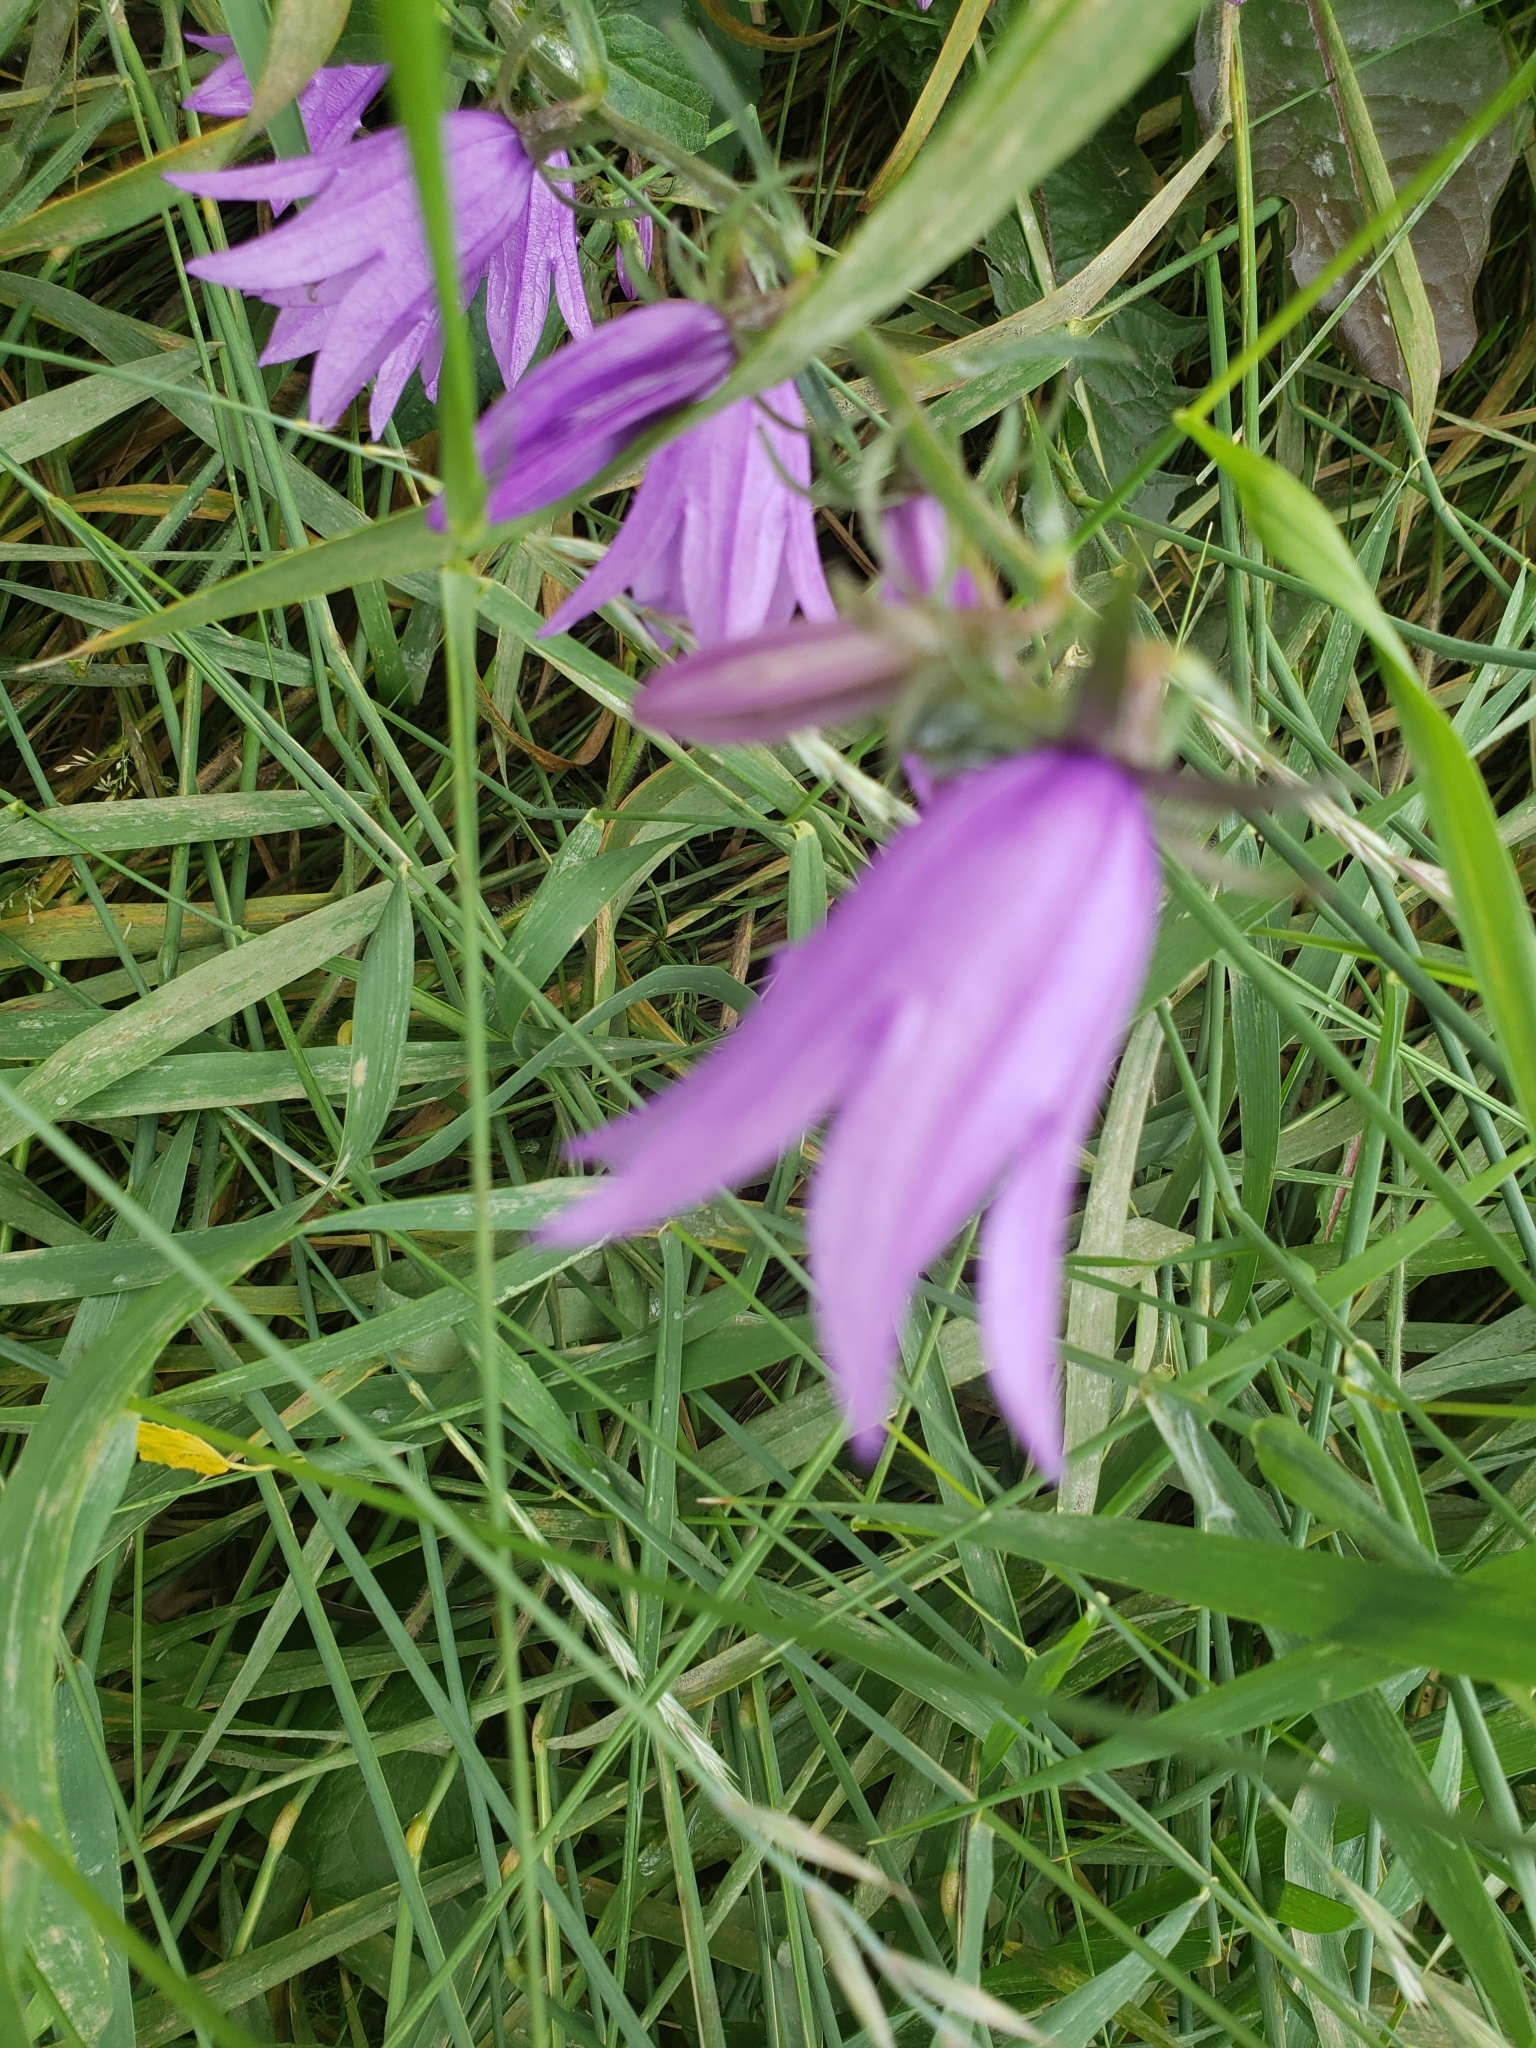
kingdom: Plantae
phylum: Tracheophyta
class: Magnoliopsida
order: Asterales
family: Campanulaceae
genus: Campanula
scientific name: Campanula rapunculoides
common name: Creeping bellflower
